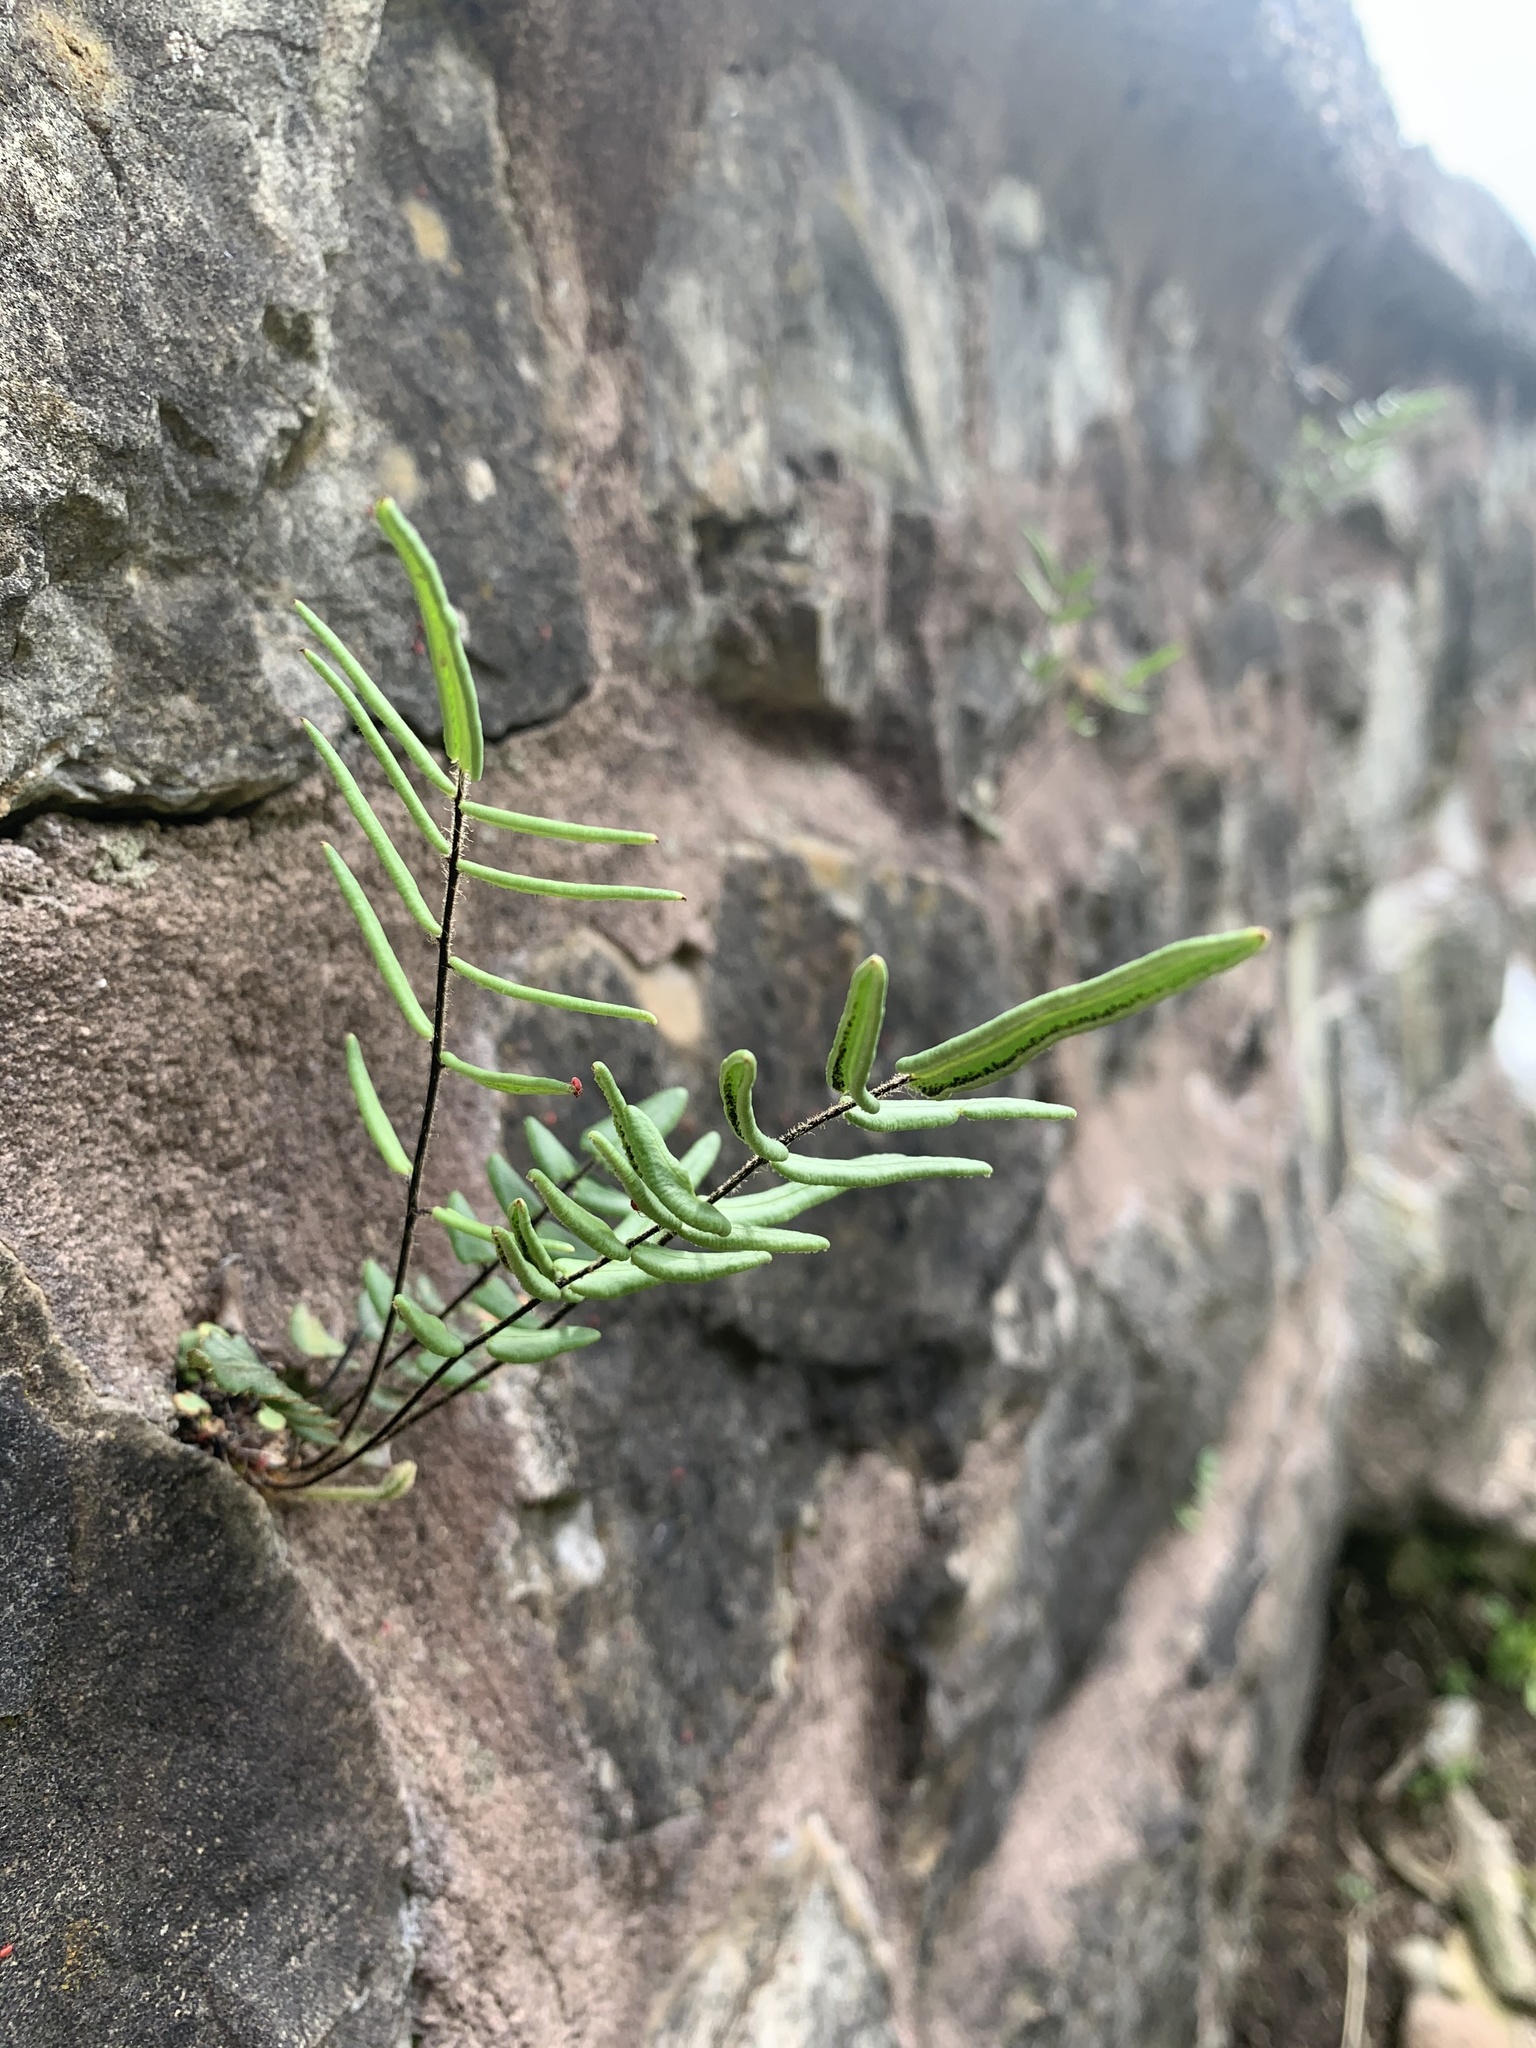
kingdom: Plantae
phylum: Tracheophyta
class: Polypodiopsida
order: Polypodiales
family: Pteridaceae
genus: Pellaea
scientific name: Pellaea atropurpurea
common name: Hairy cliffbrake
